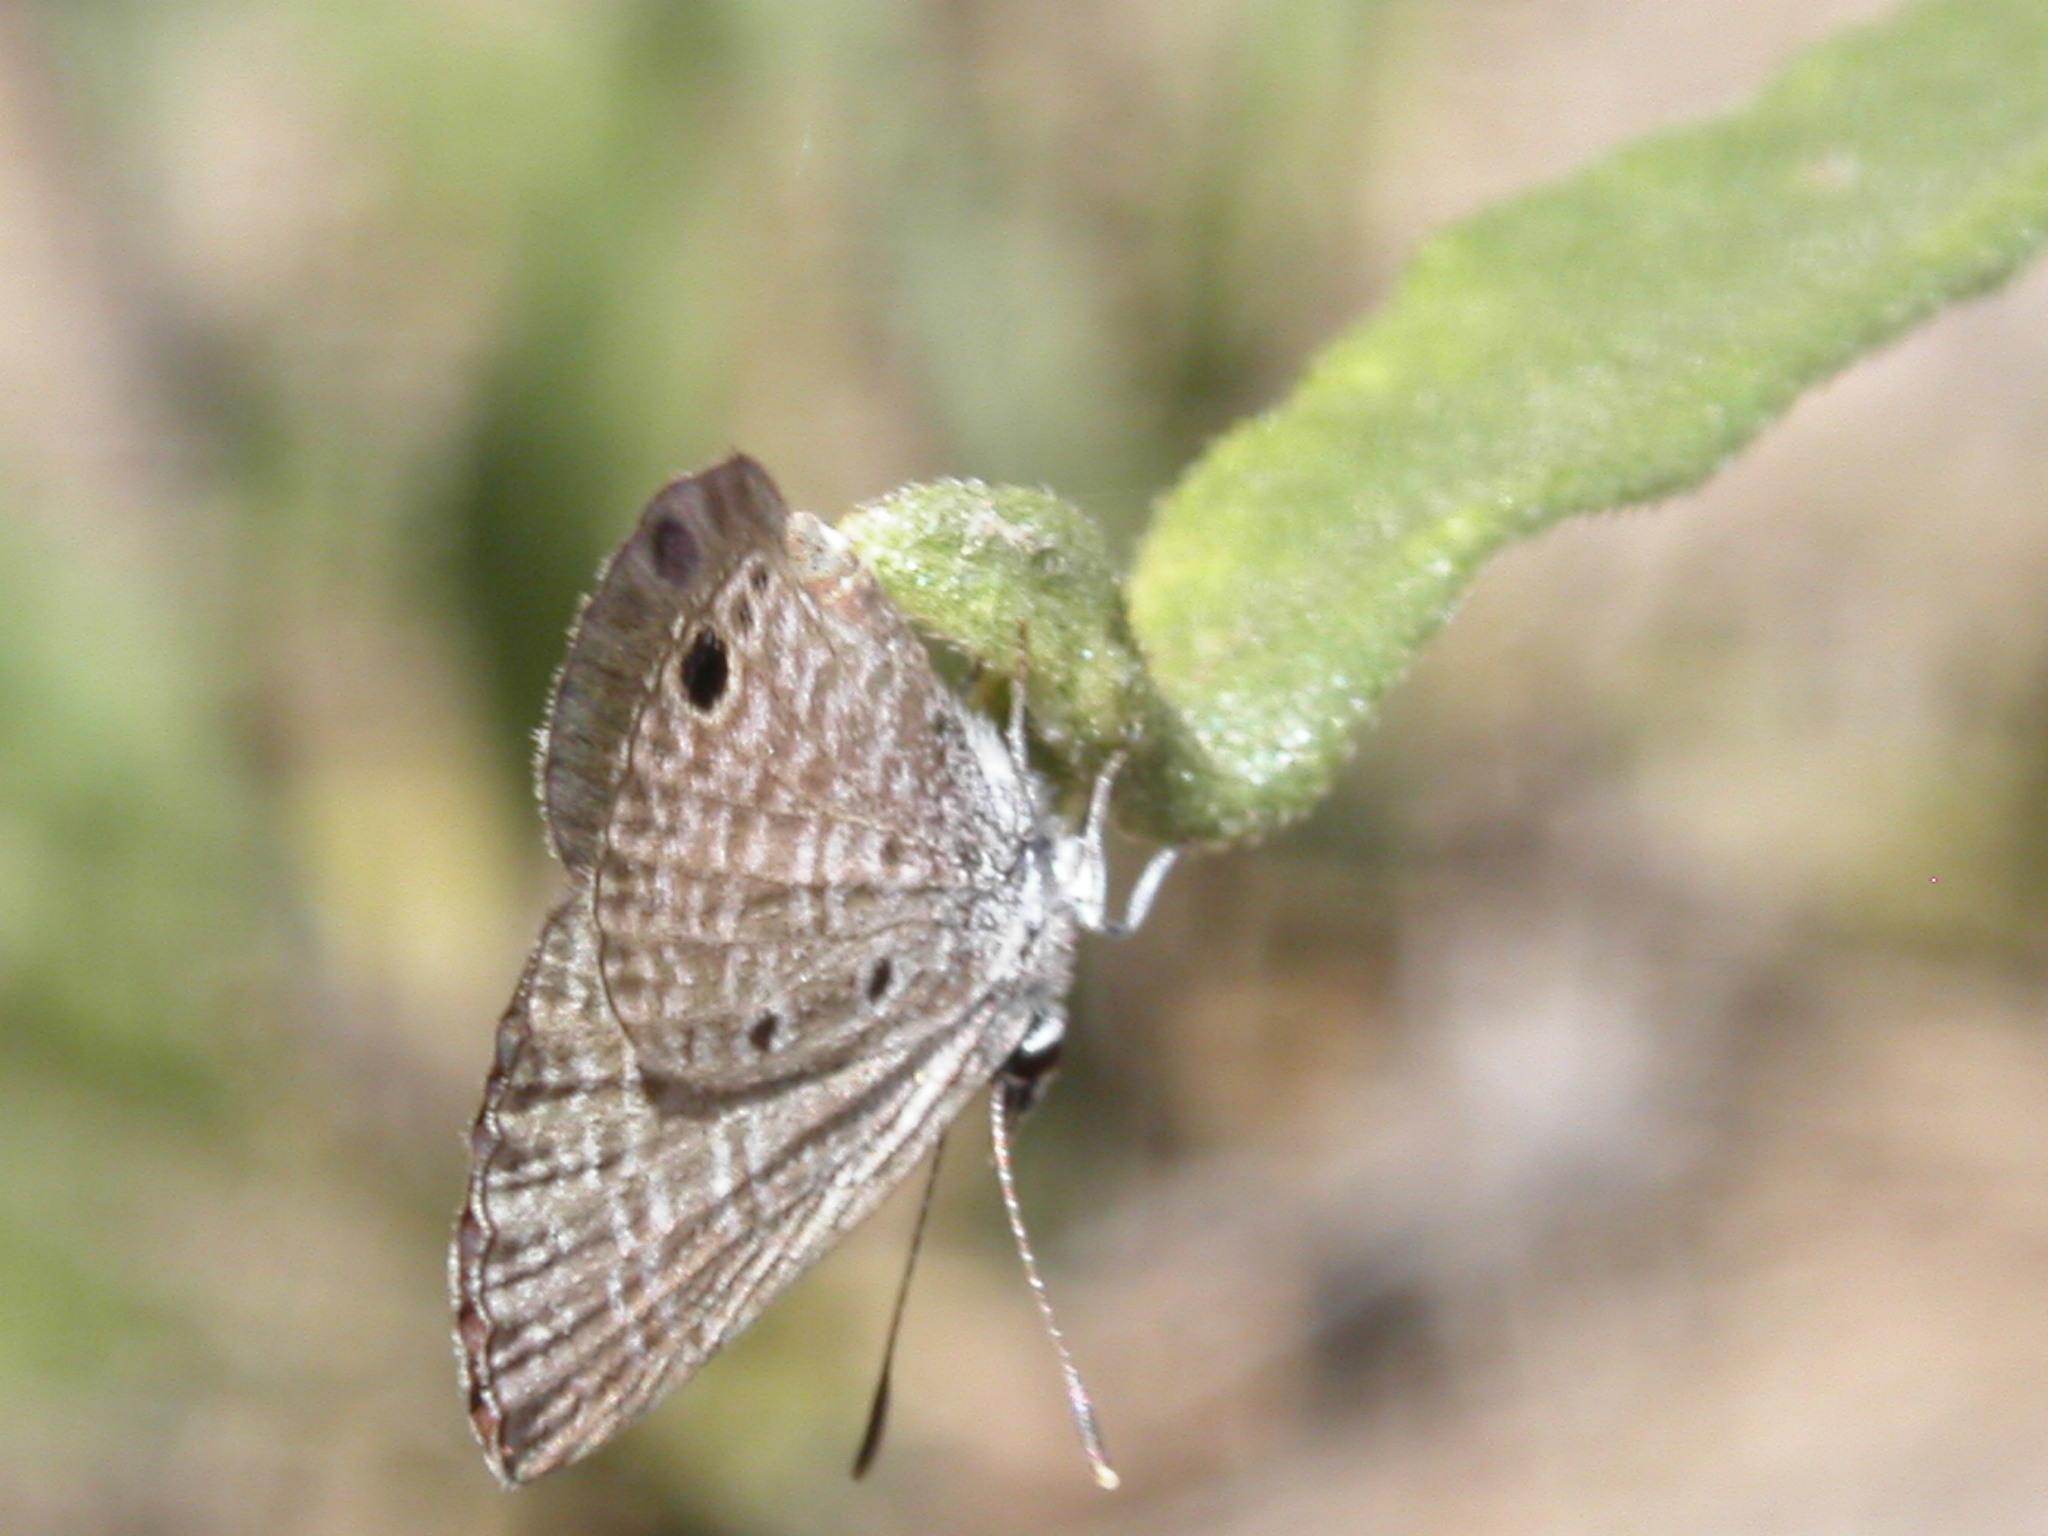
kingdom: Animalia
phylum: Arthropoda
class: Insecta
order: Lepidoptera
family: Lycaenidae
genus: Hemiargus
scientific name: Hemiargus ceraunus
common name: Ceraunus blue
